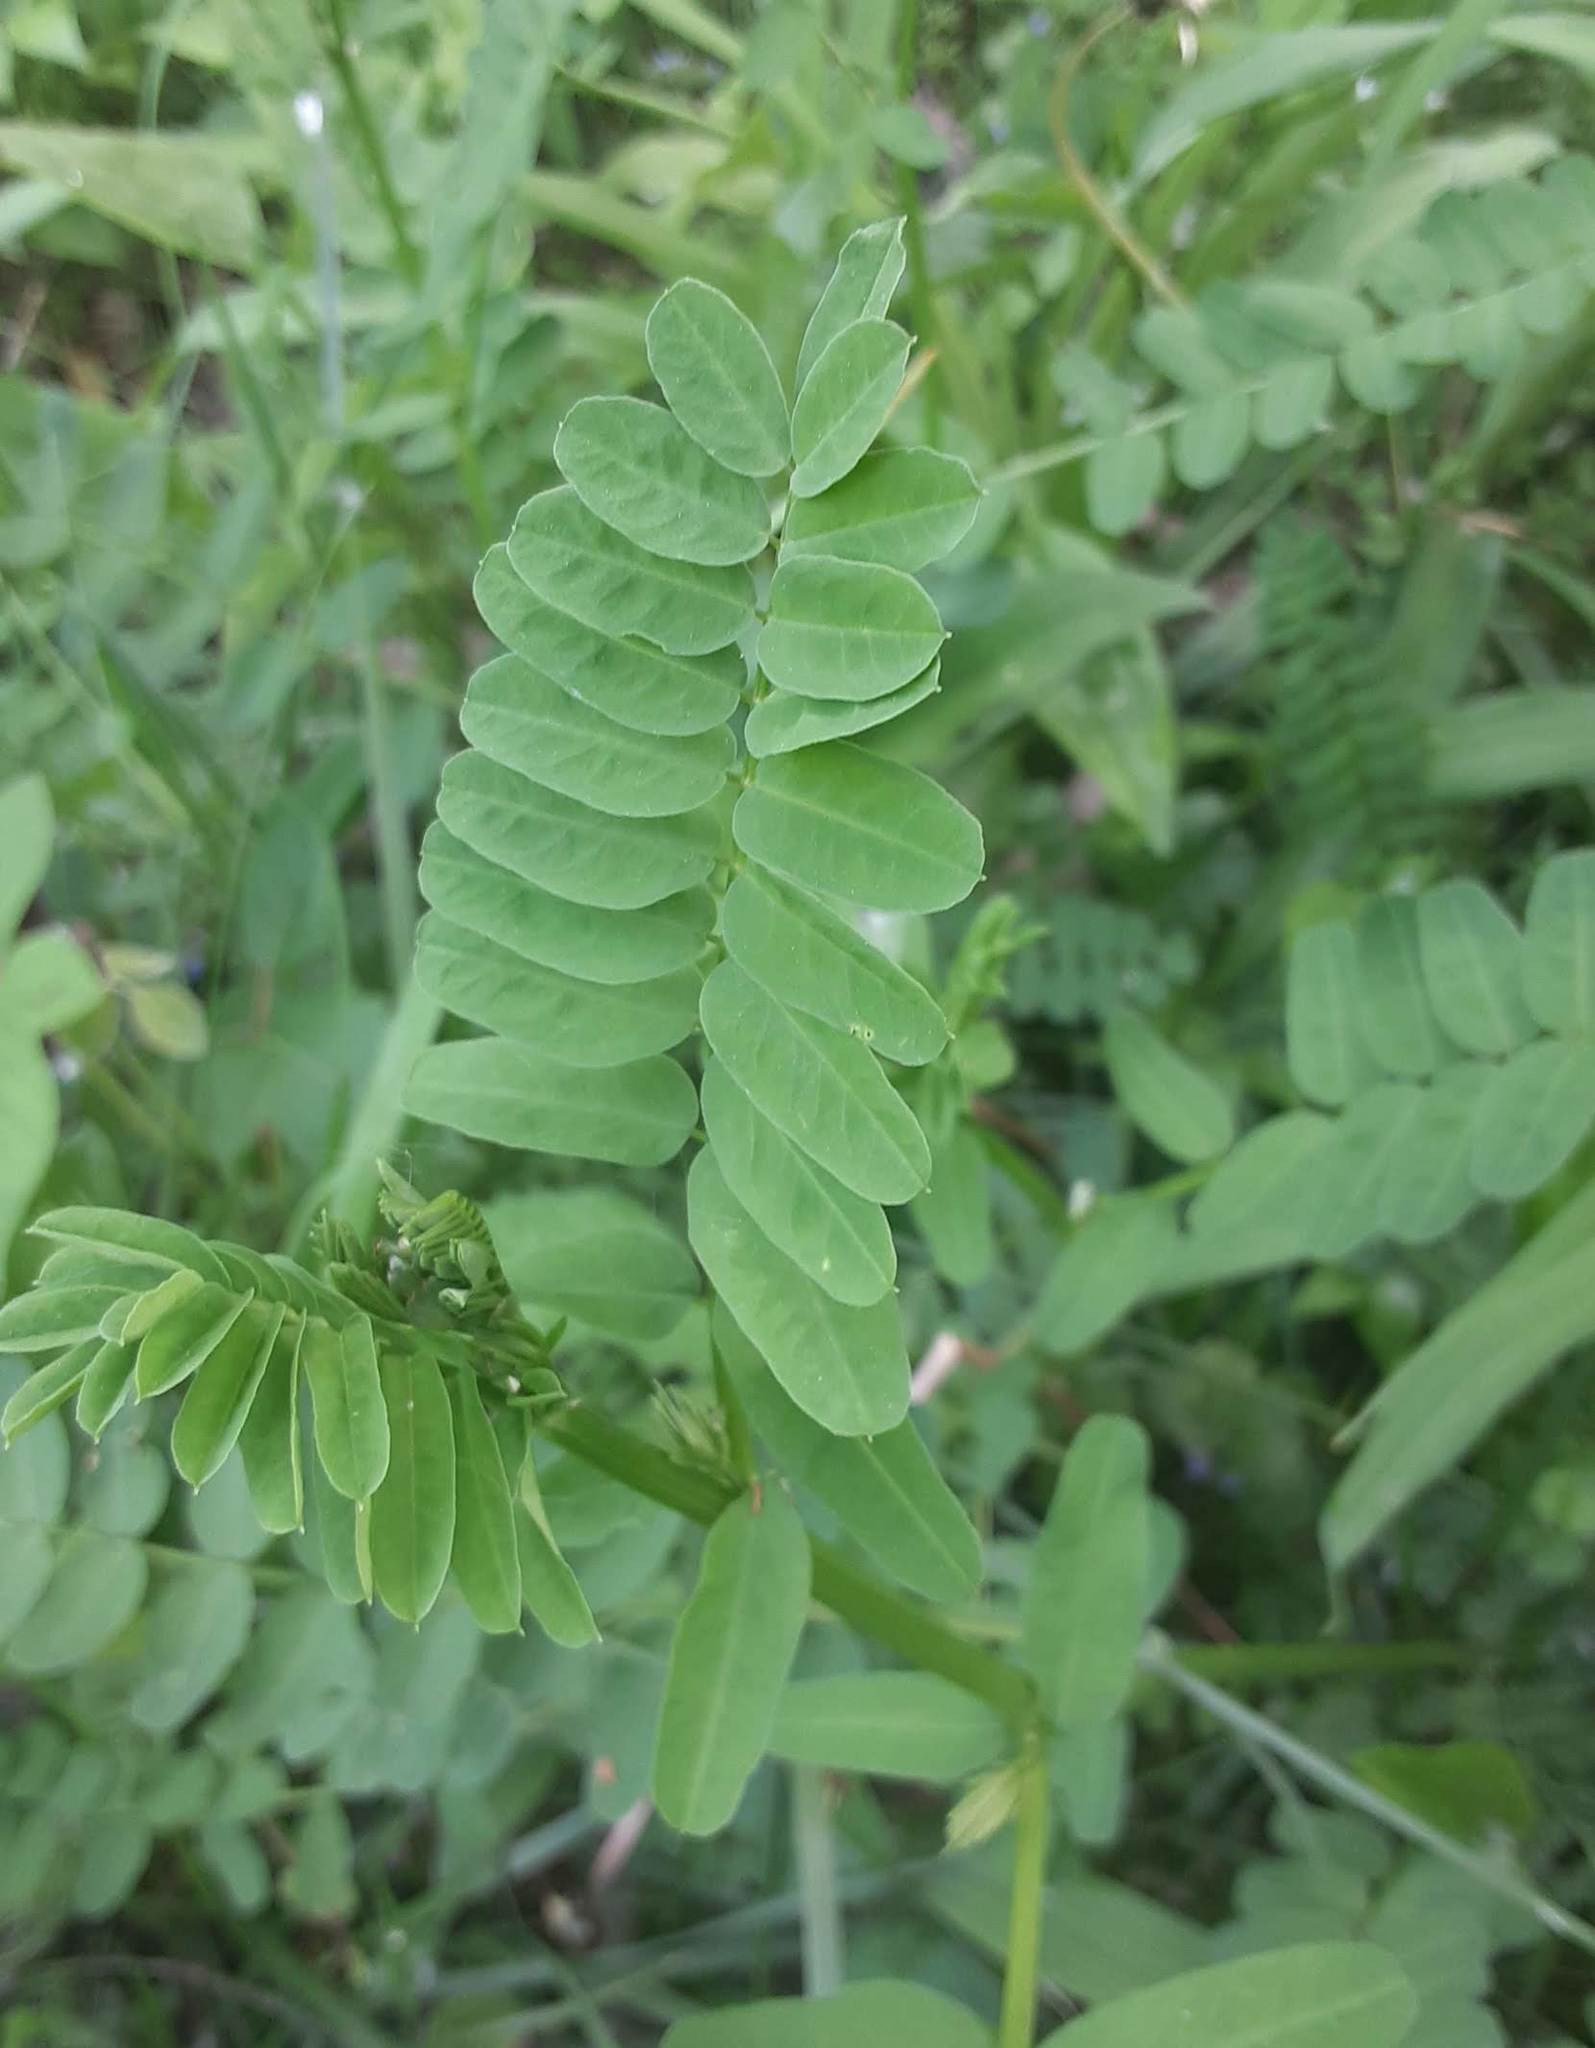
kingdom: Plantae
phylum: Tracheophyta
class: Magnoliopsida
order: Fabales
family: Fabaceae
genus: Coronilla
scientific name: Coronilla varia
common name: Crownvetch
